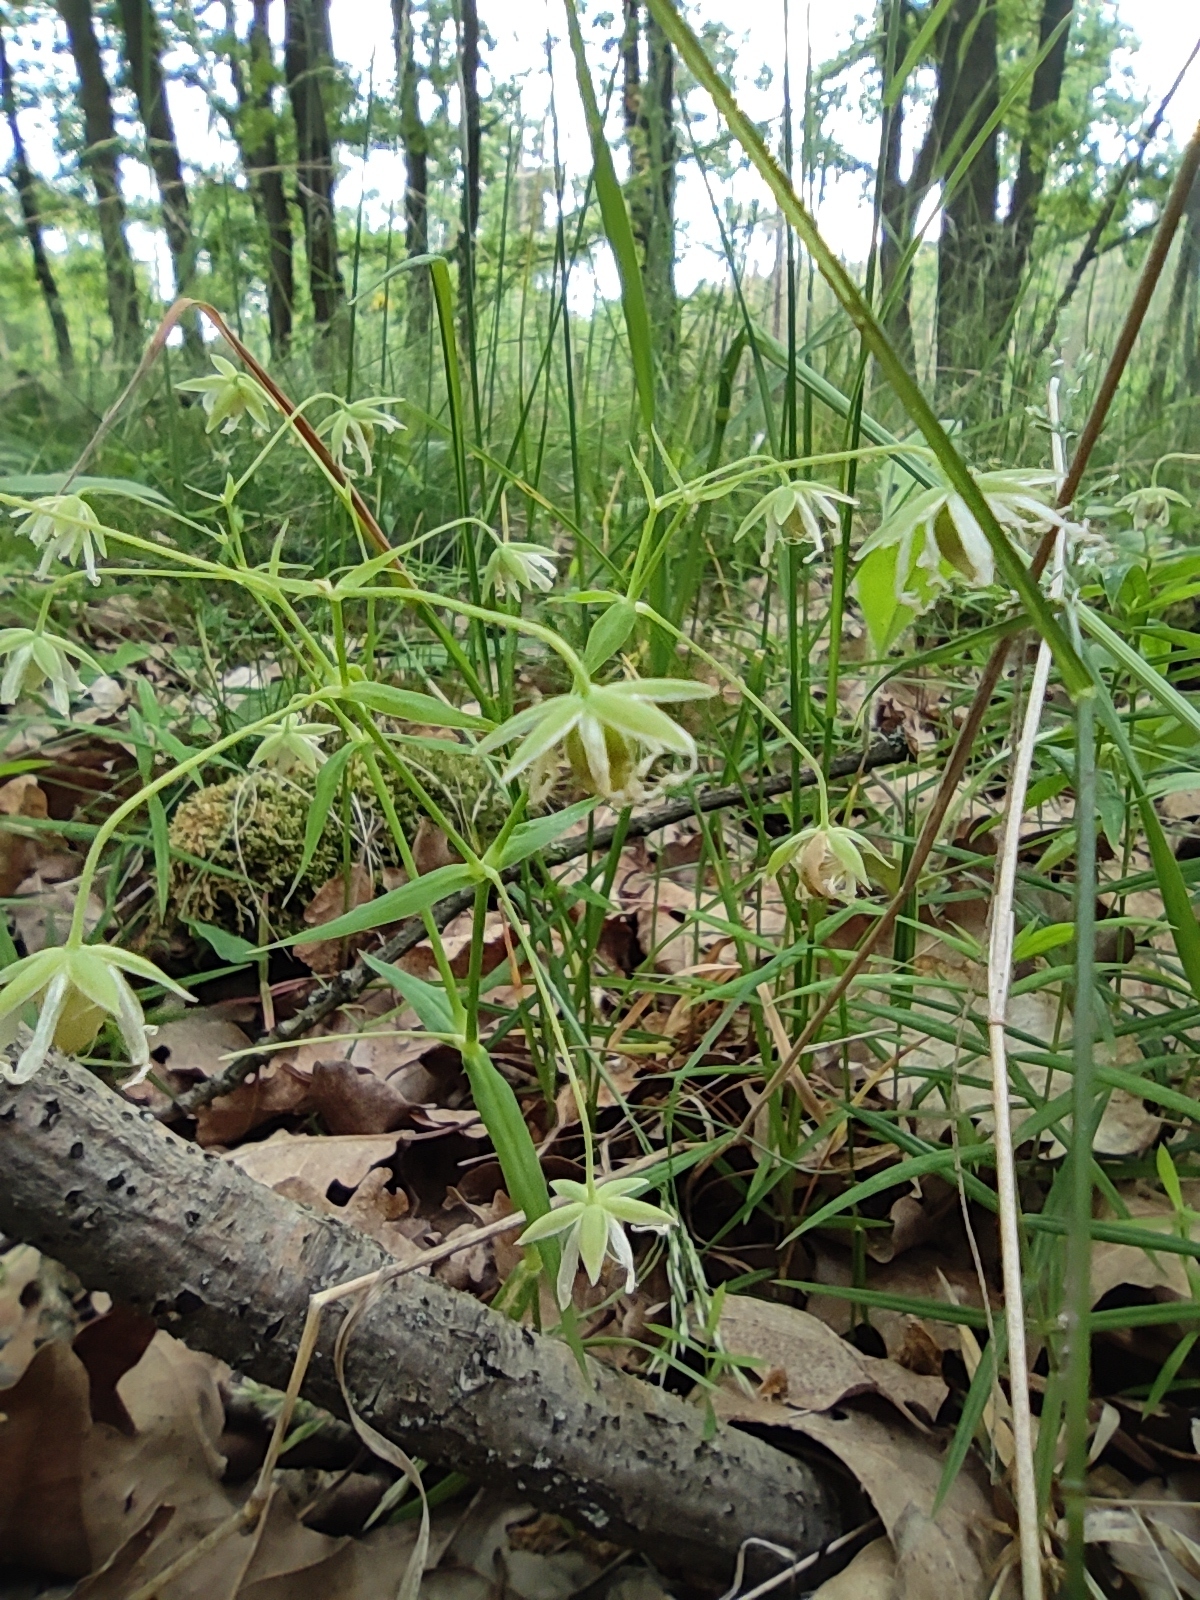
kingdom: Plantae
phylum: Tracheophyta
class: Magnoliopsida
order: Caryophyllales
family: Caryophyllaceae
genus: Rabelera
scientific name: Rabelera holostea
